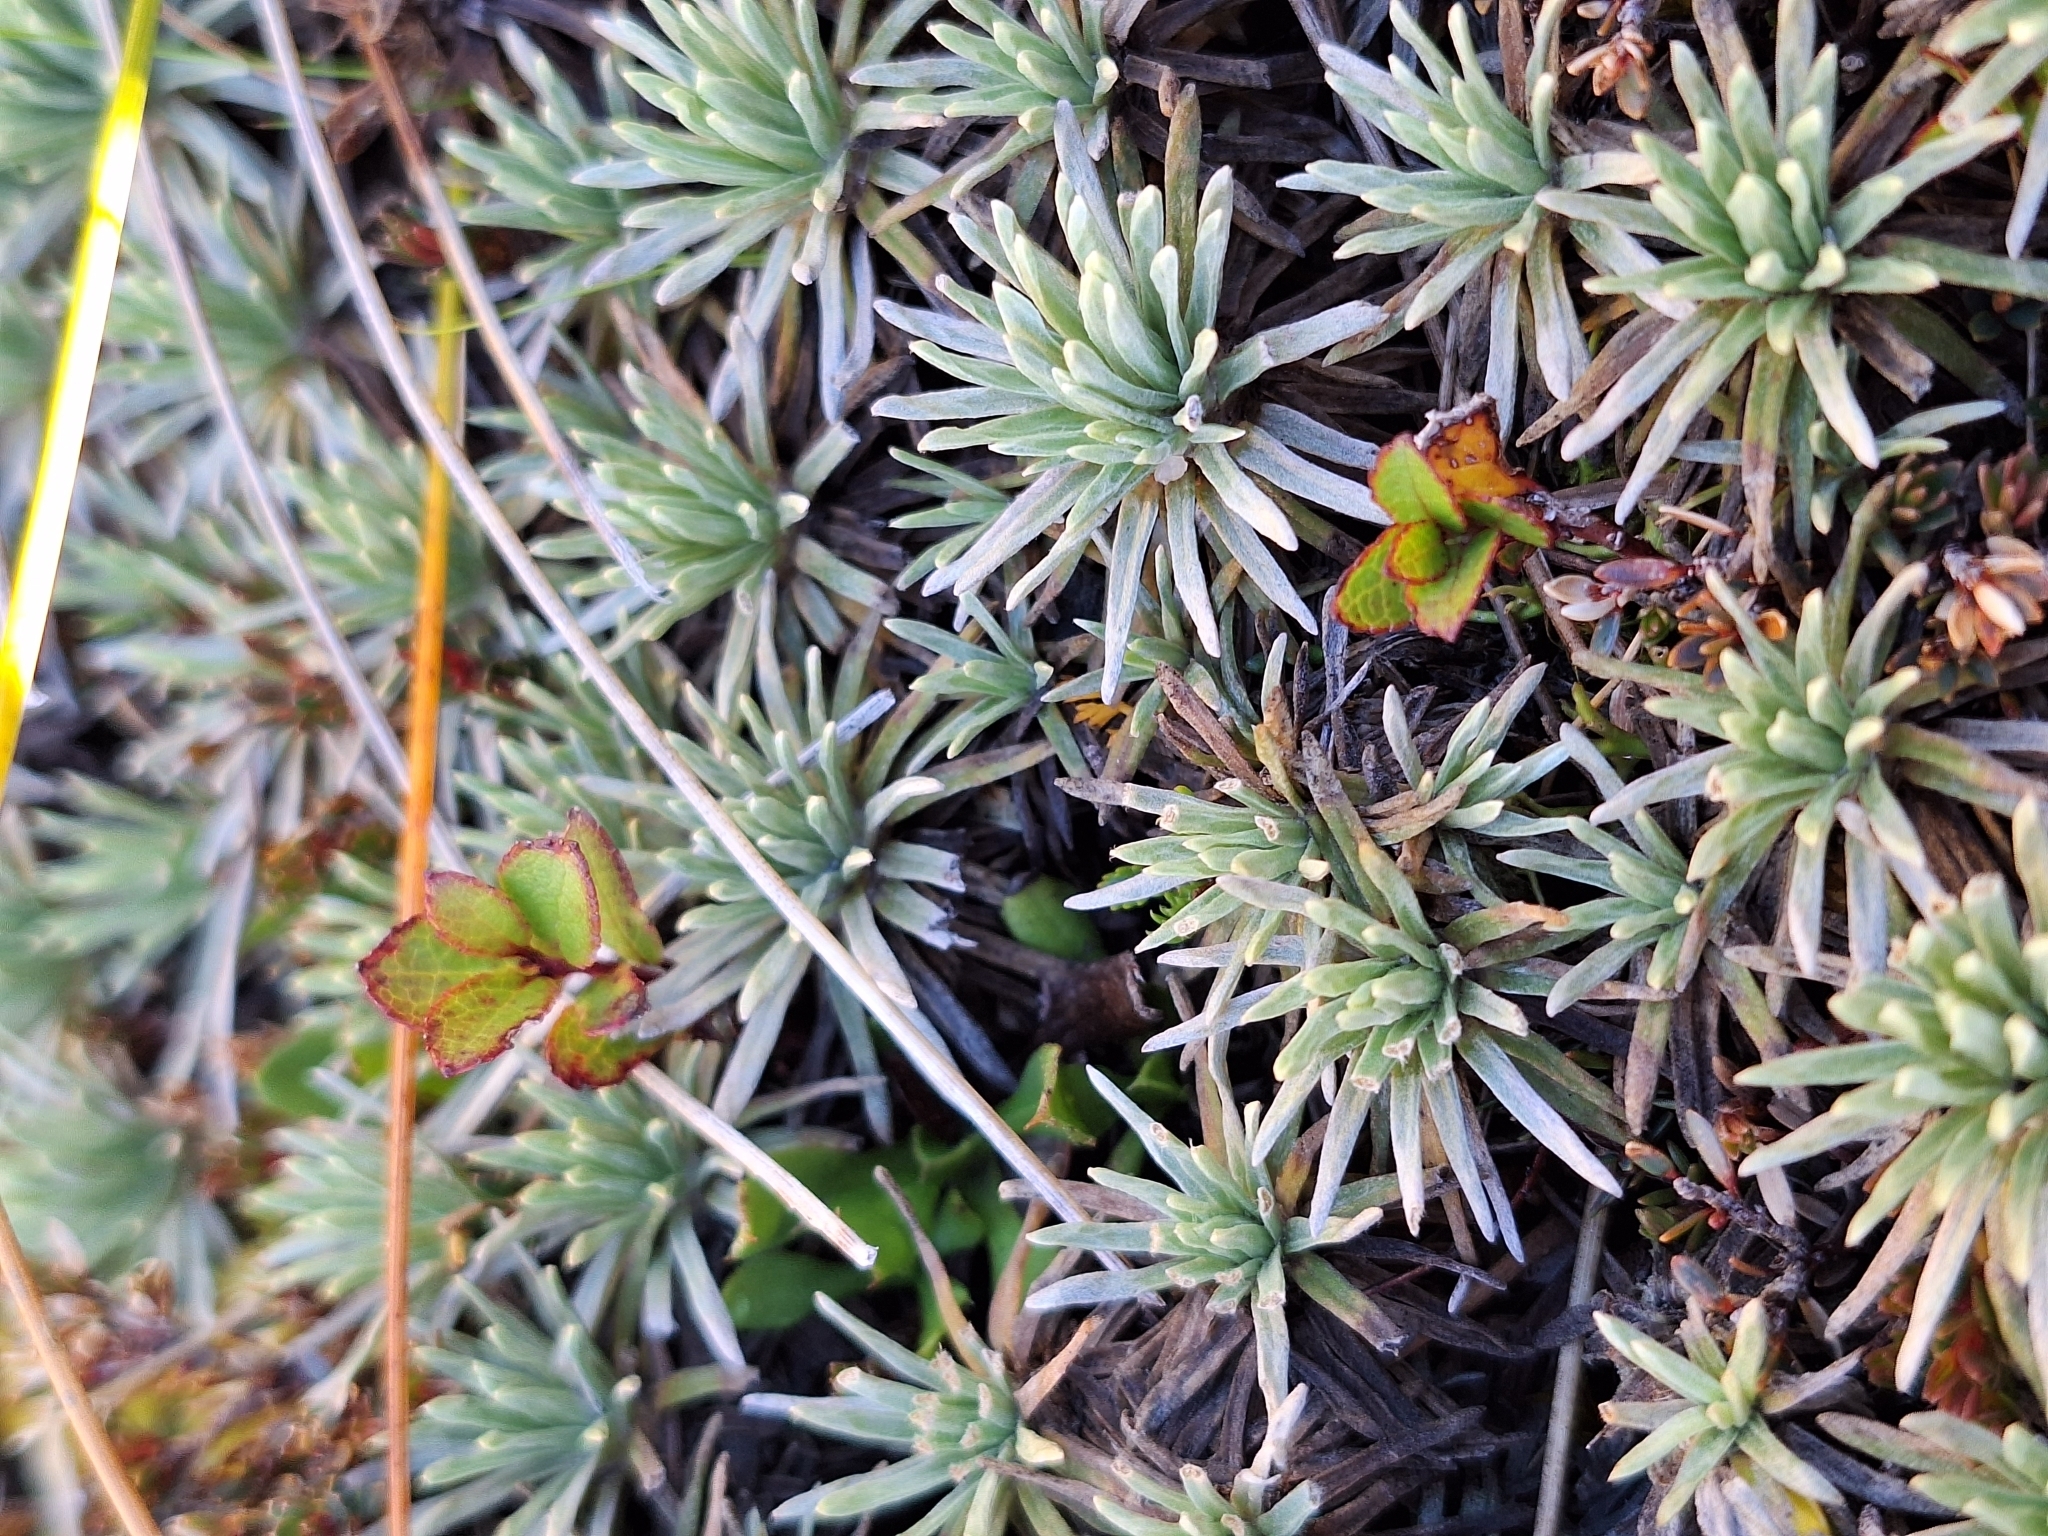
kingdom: Plantae
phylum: Tracheophyta
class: Magnoliopsida
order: Asterales
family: Asteraceae
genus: Celmisia
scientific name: Celmisia sessiliflora
